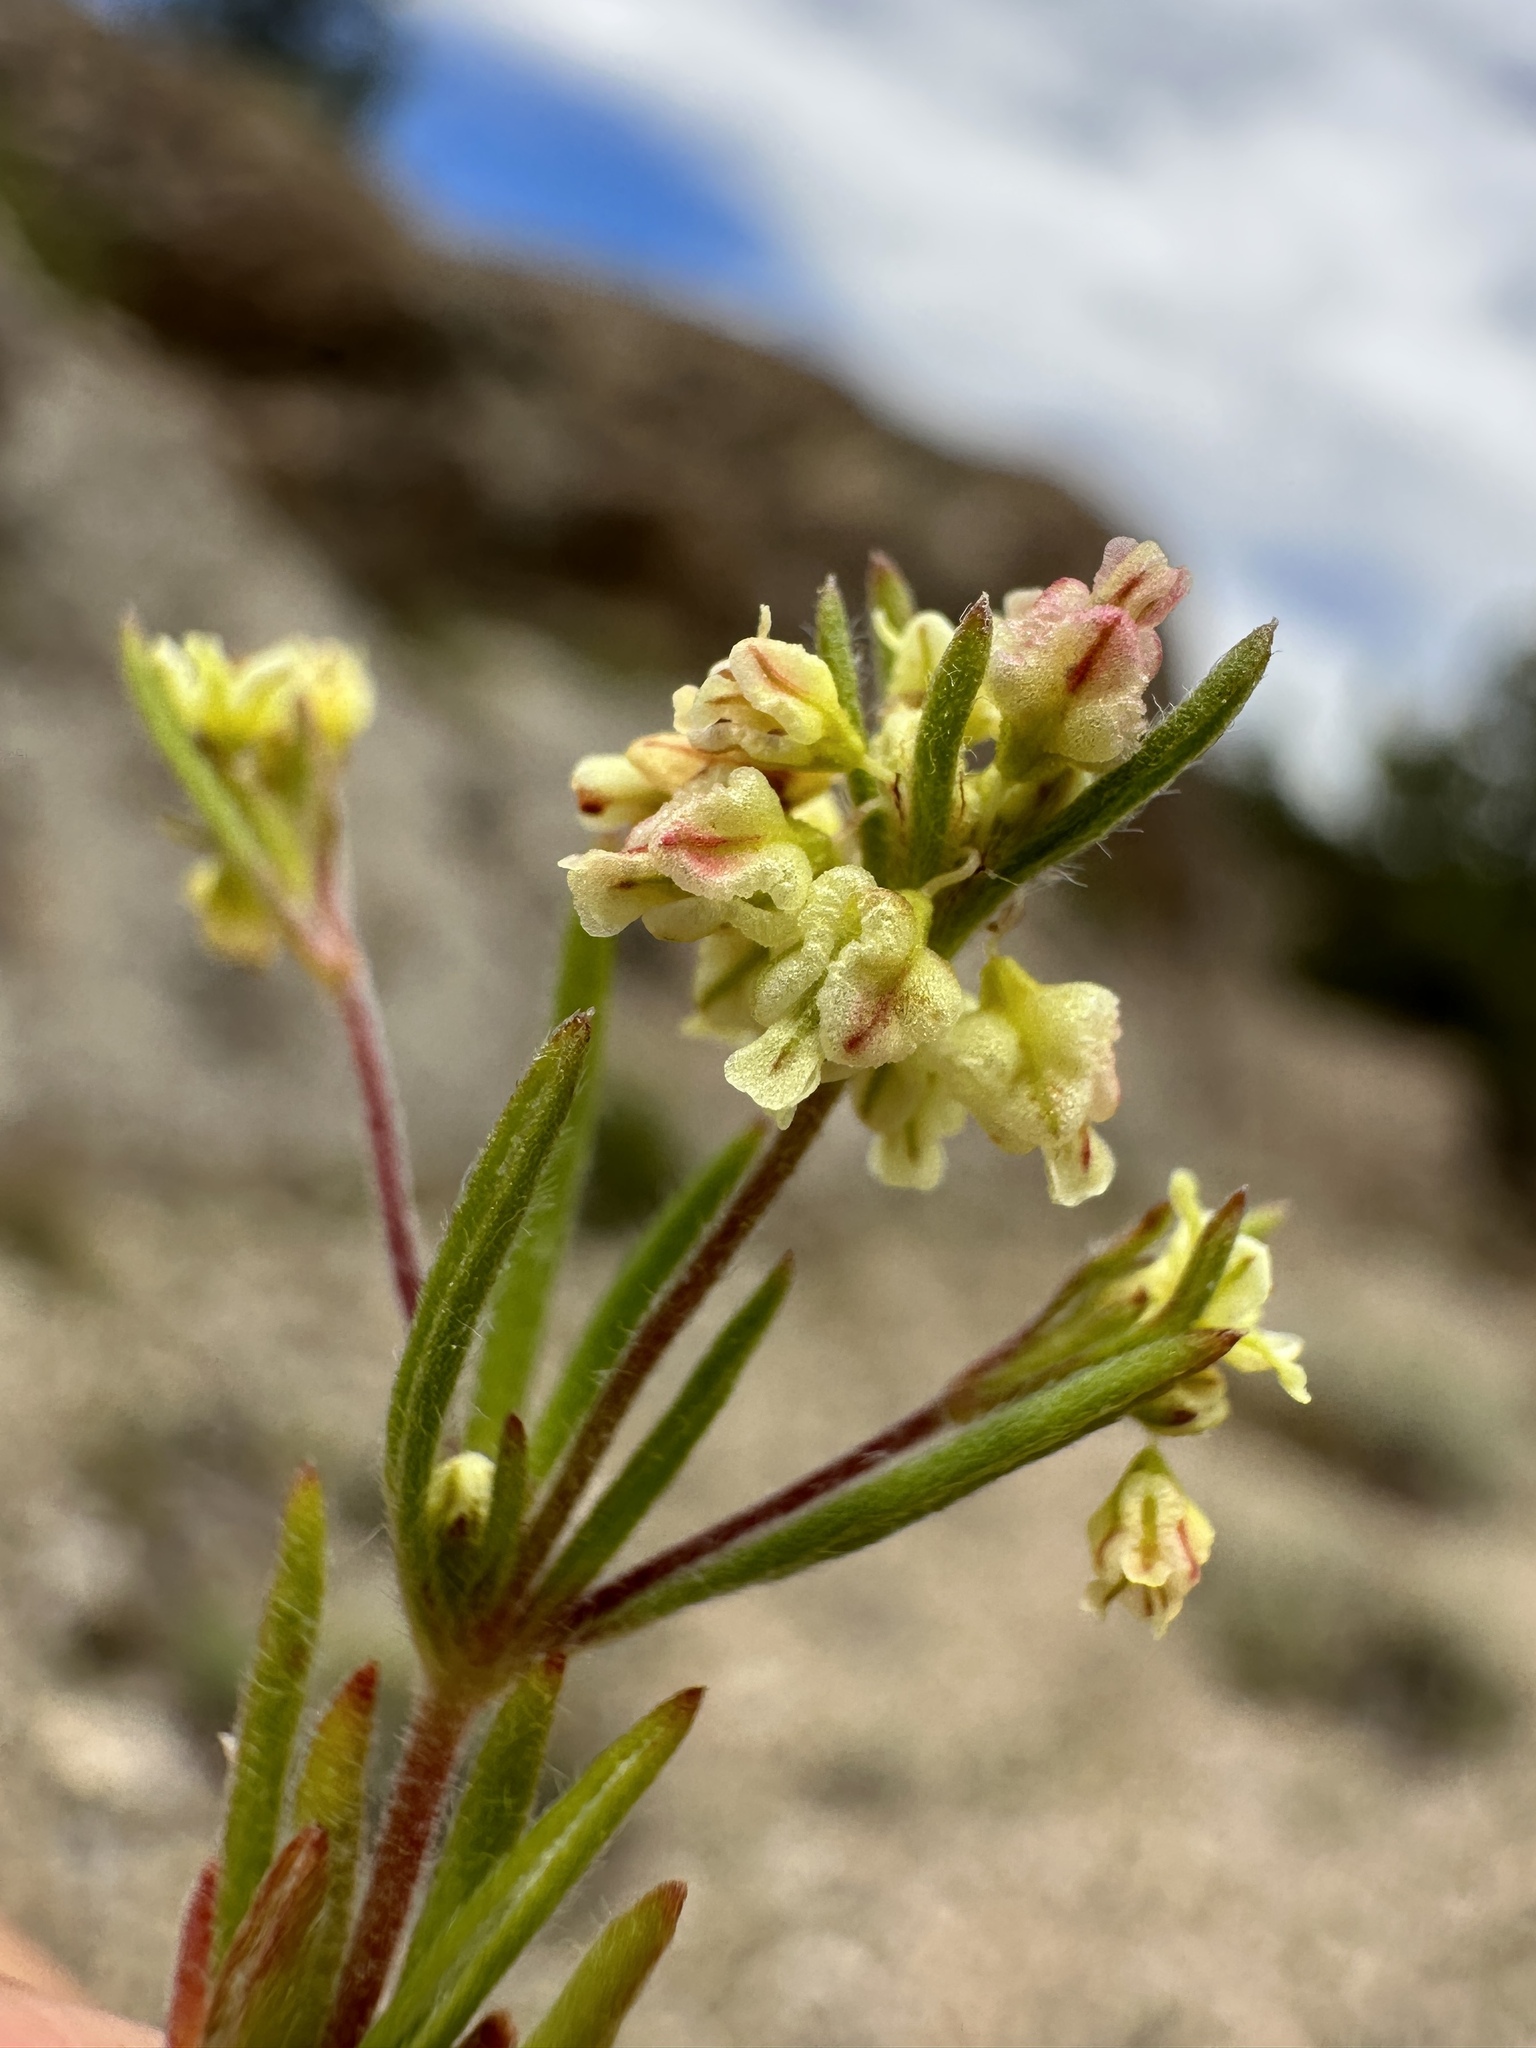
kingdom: Plantae
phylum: Tracheophyta
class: Magnoliopsida
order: Caryophyllales
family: Polygonaceae
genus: Eriogonum
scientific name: Eriogonum pharnaceoides
